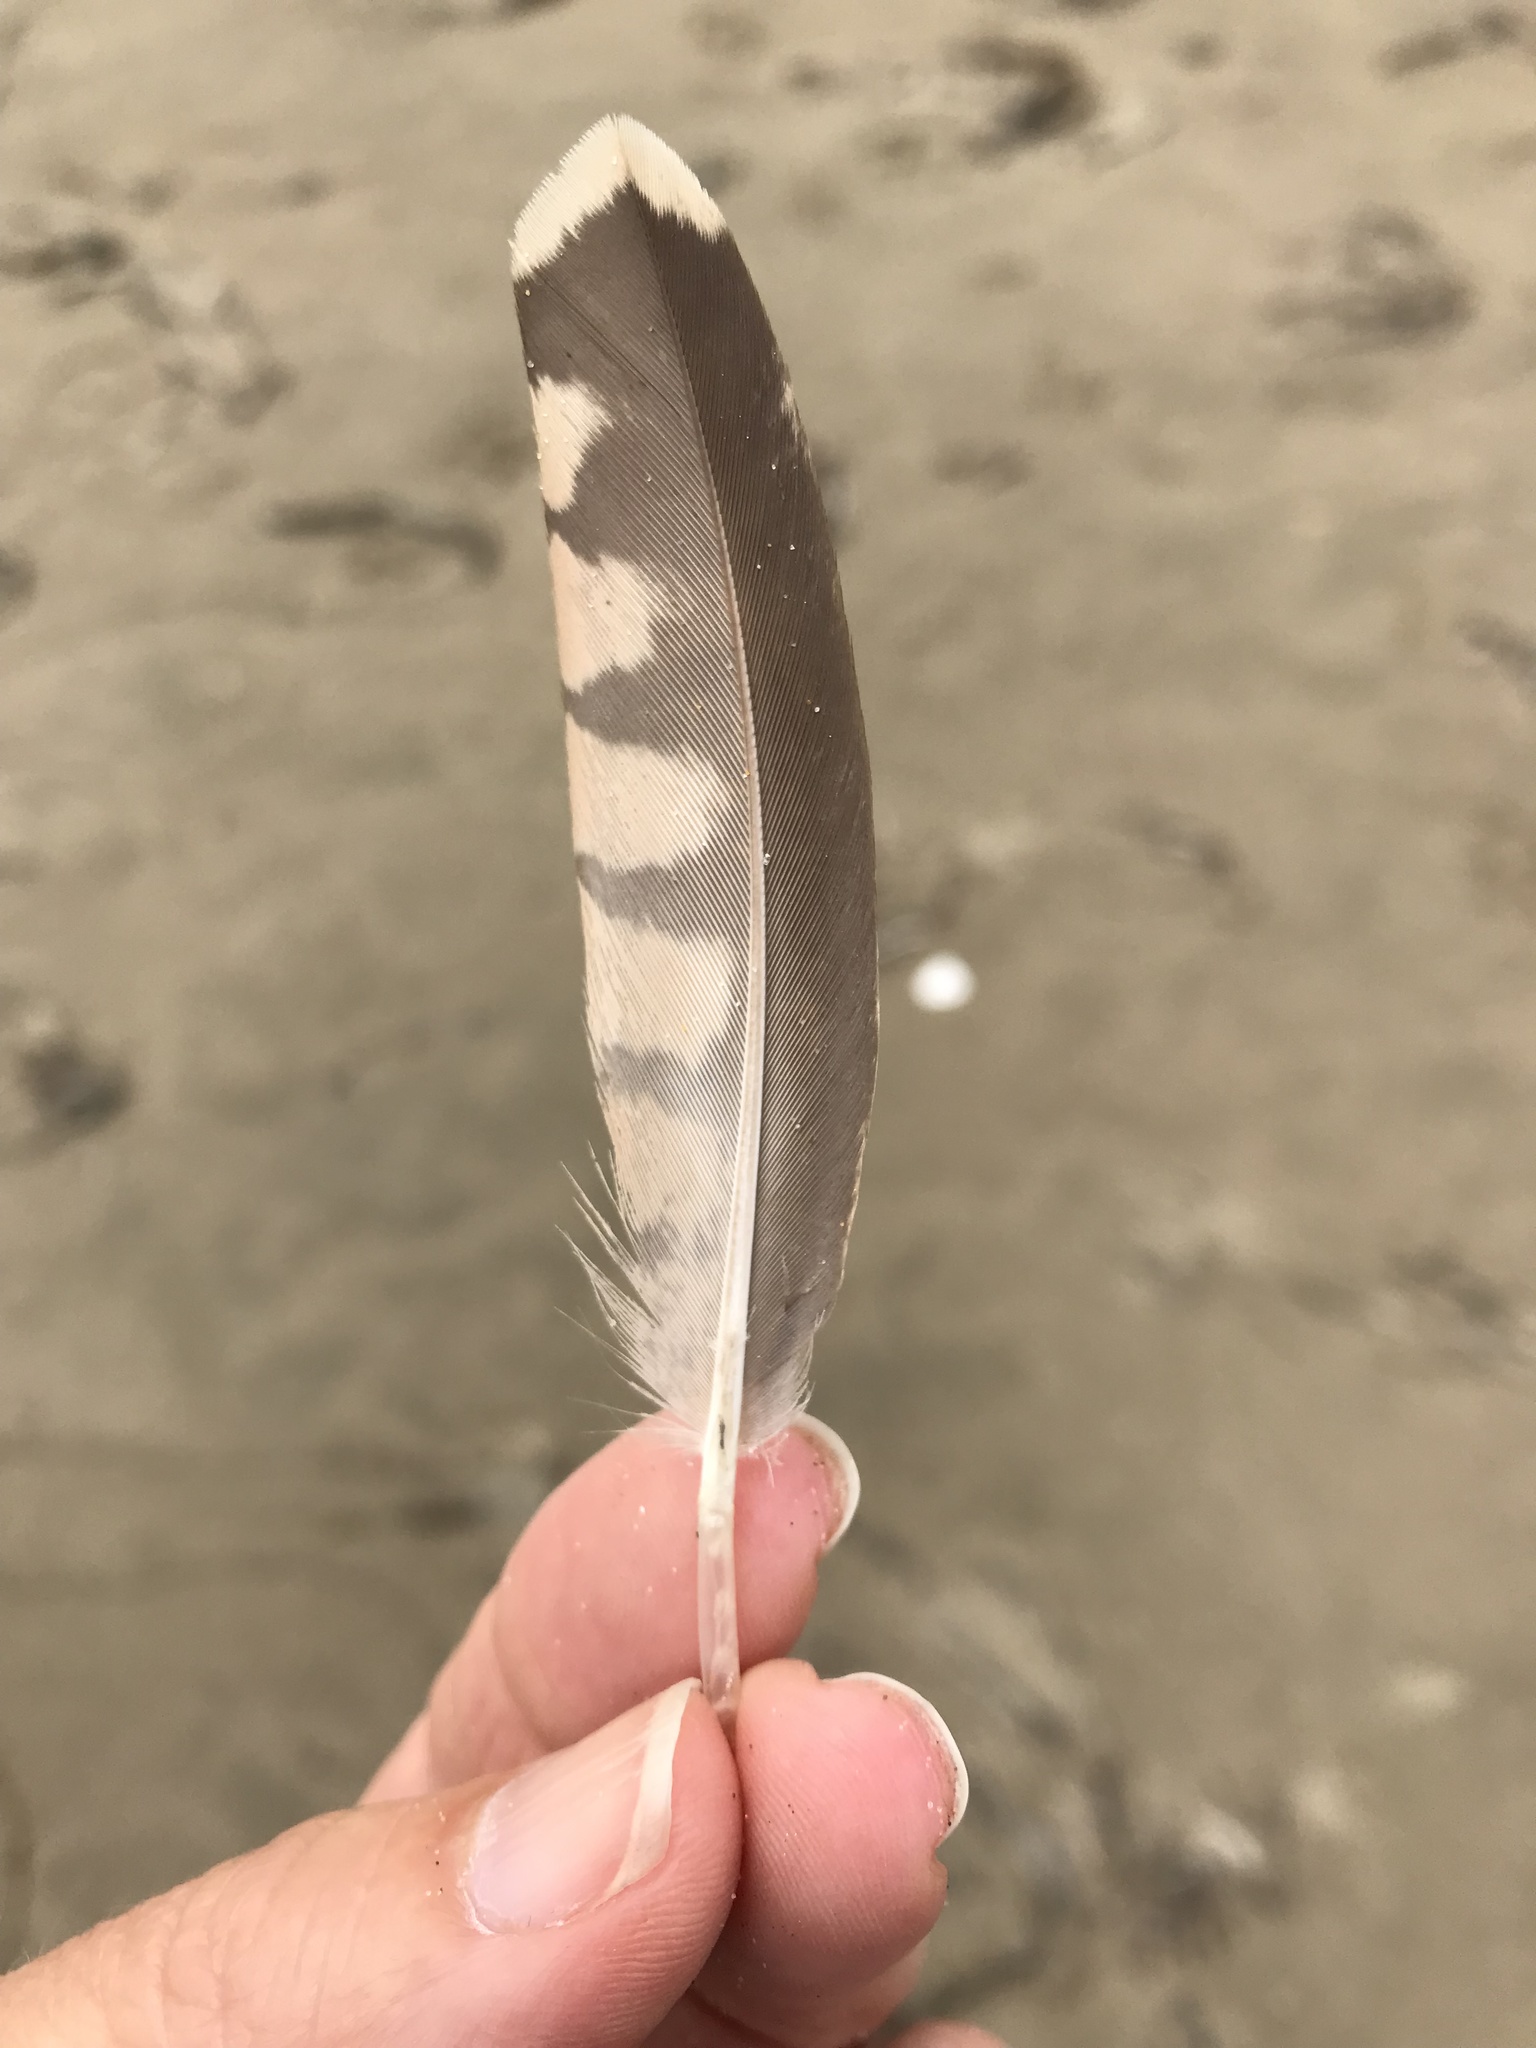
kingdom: Animalia
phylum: Chordata
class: Aves
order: Charadriiformes
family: Scolopacidae
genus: Numenius
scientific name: Numenius americanus
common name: Long-billed curlew
